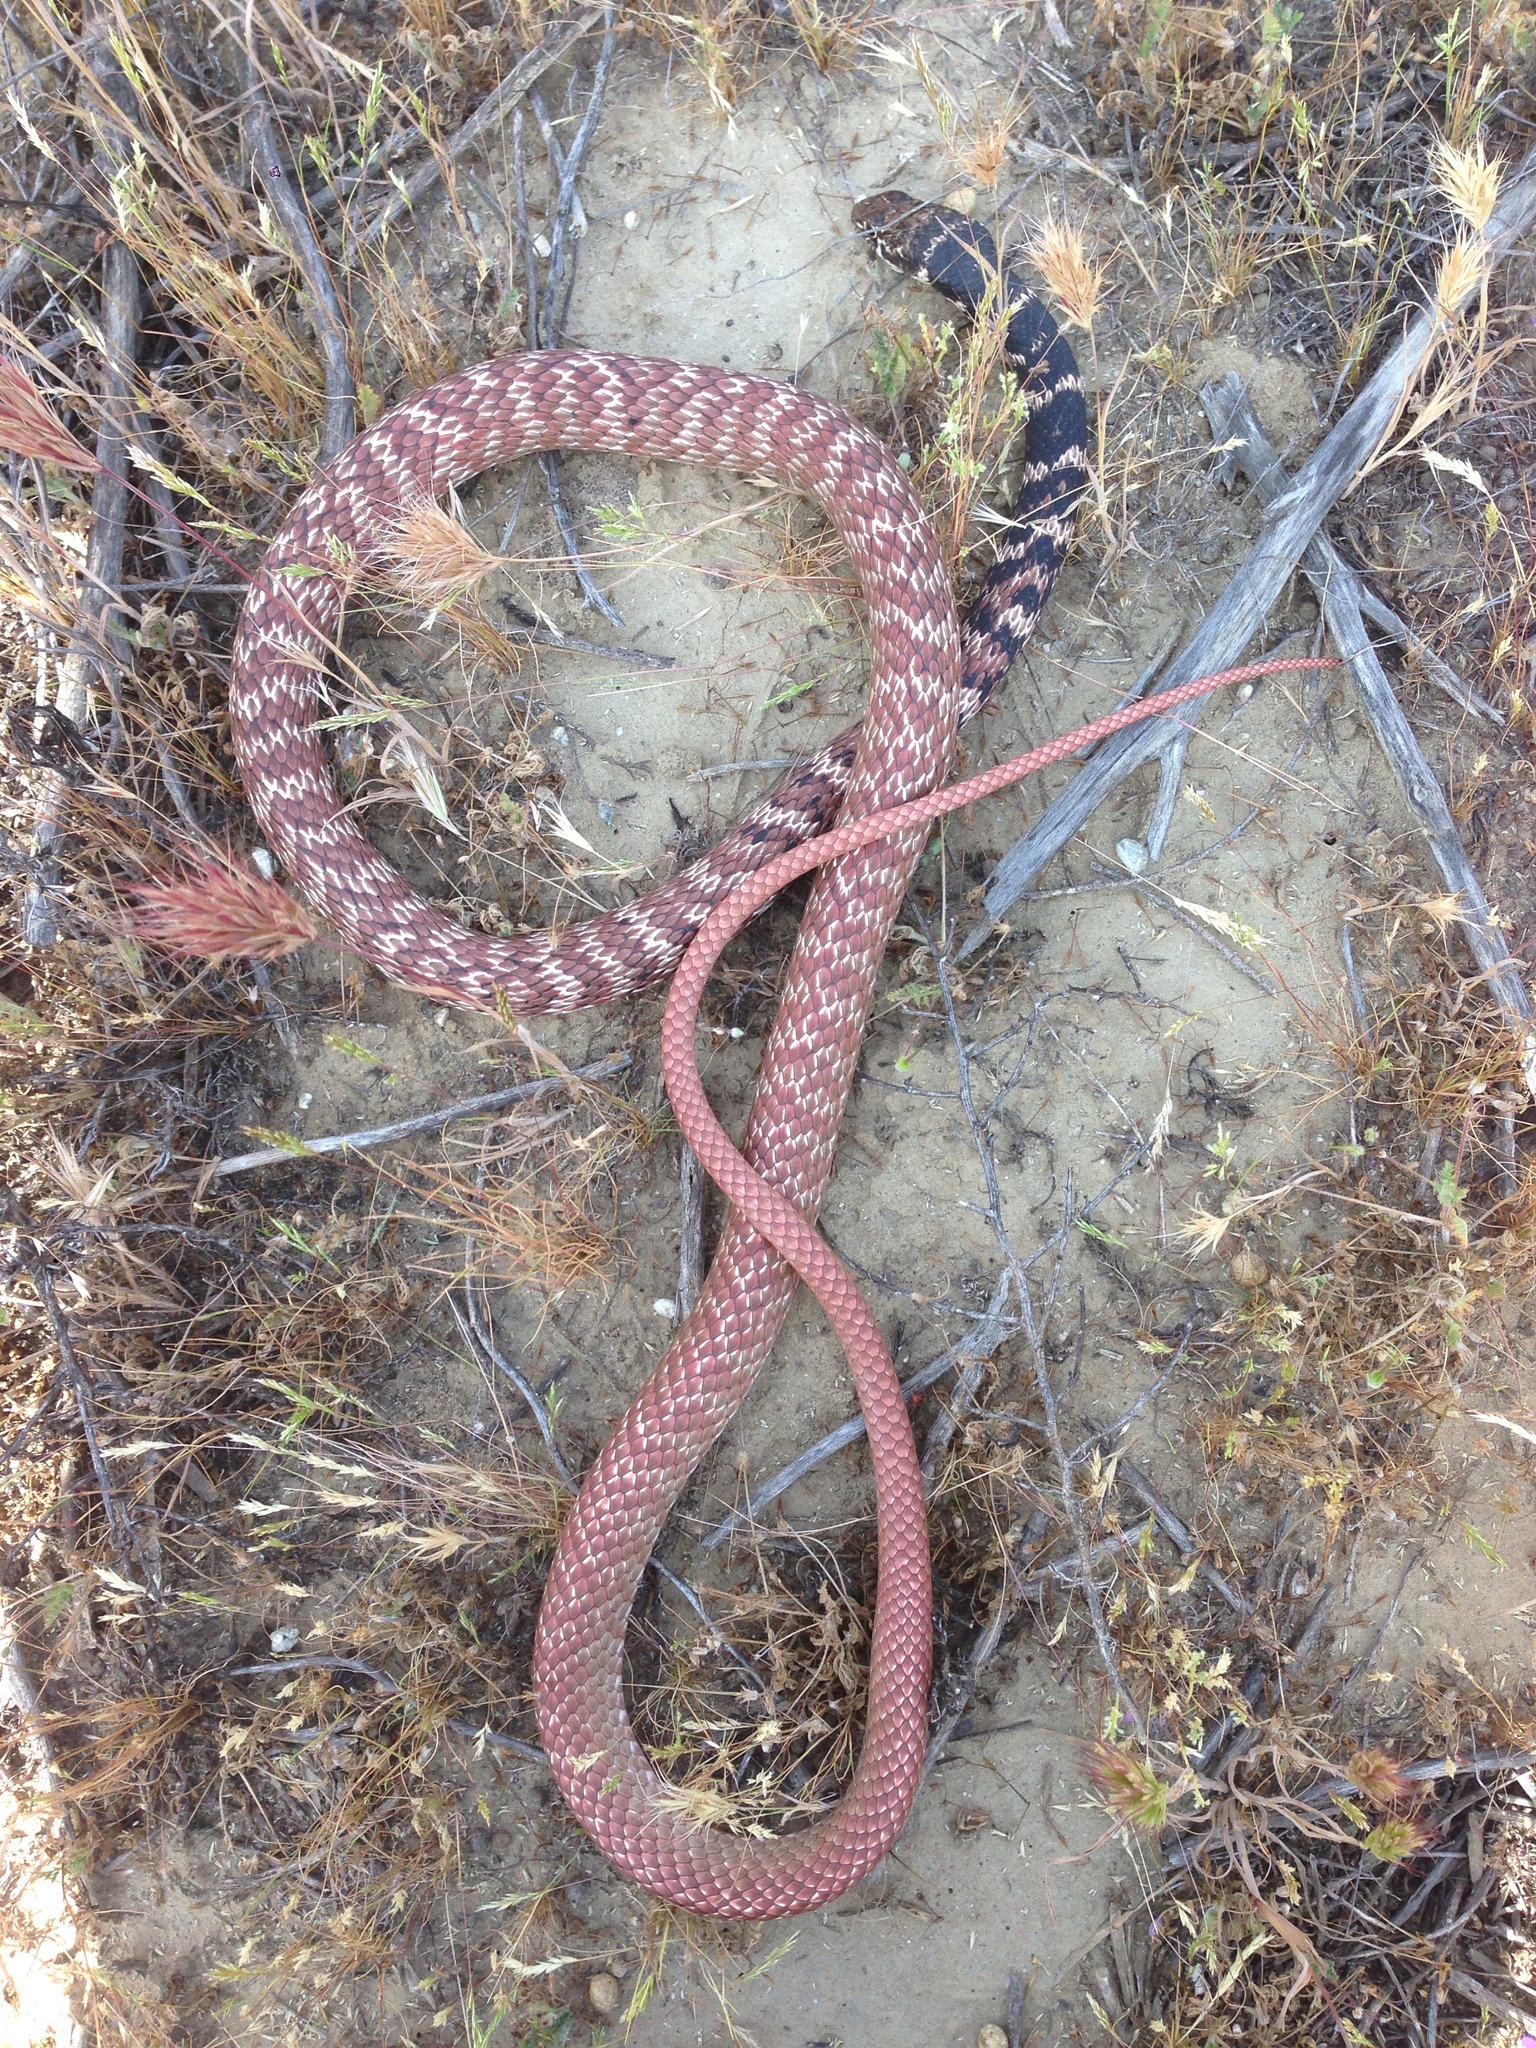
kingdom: Animalia
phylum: Chordata
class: Squamata
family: Colubridae
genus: Masticophis
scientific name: Masticophis flagellum
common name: Coachwhip
